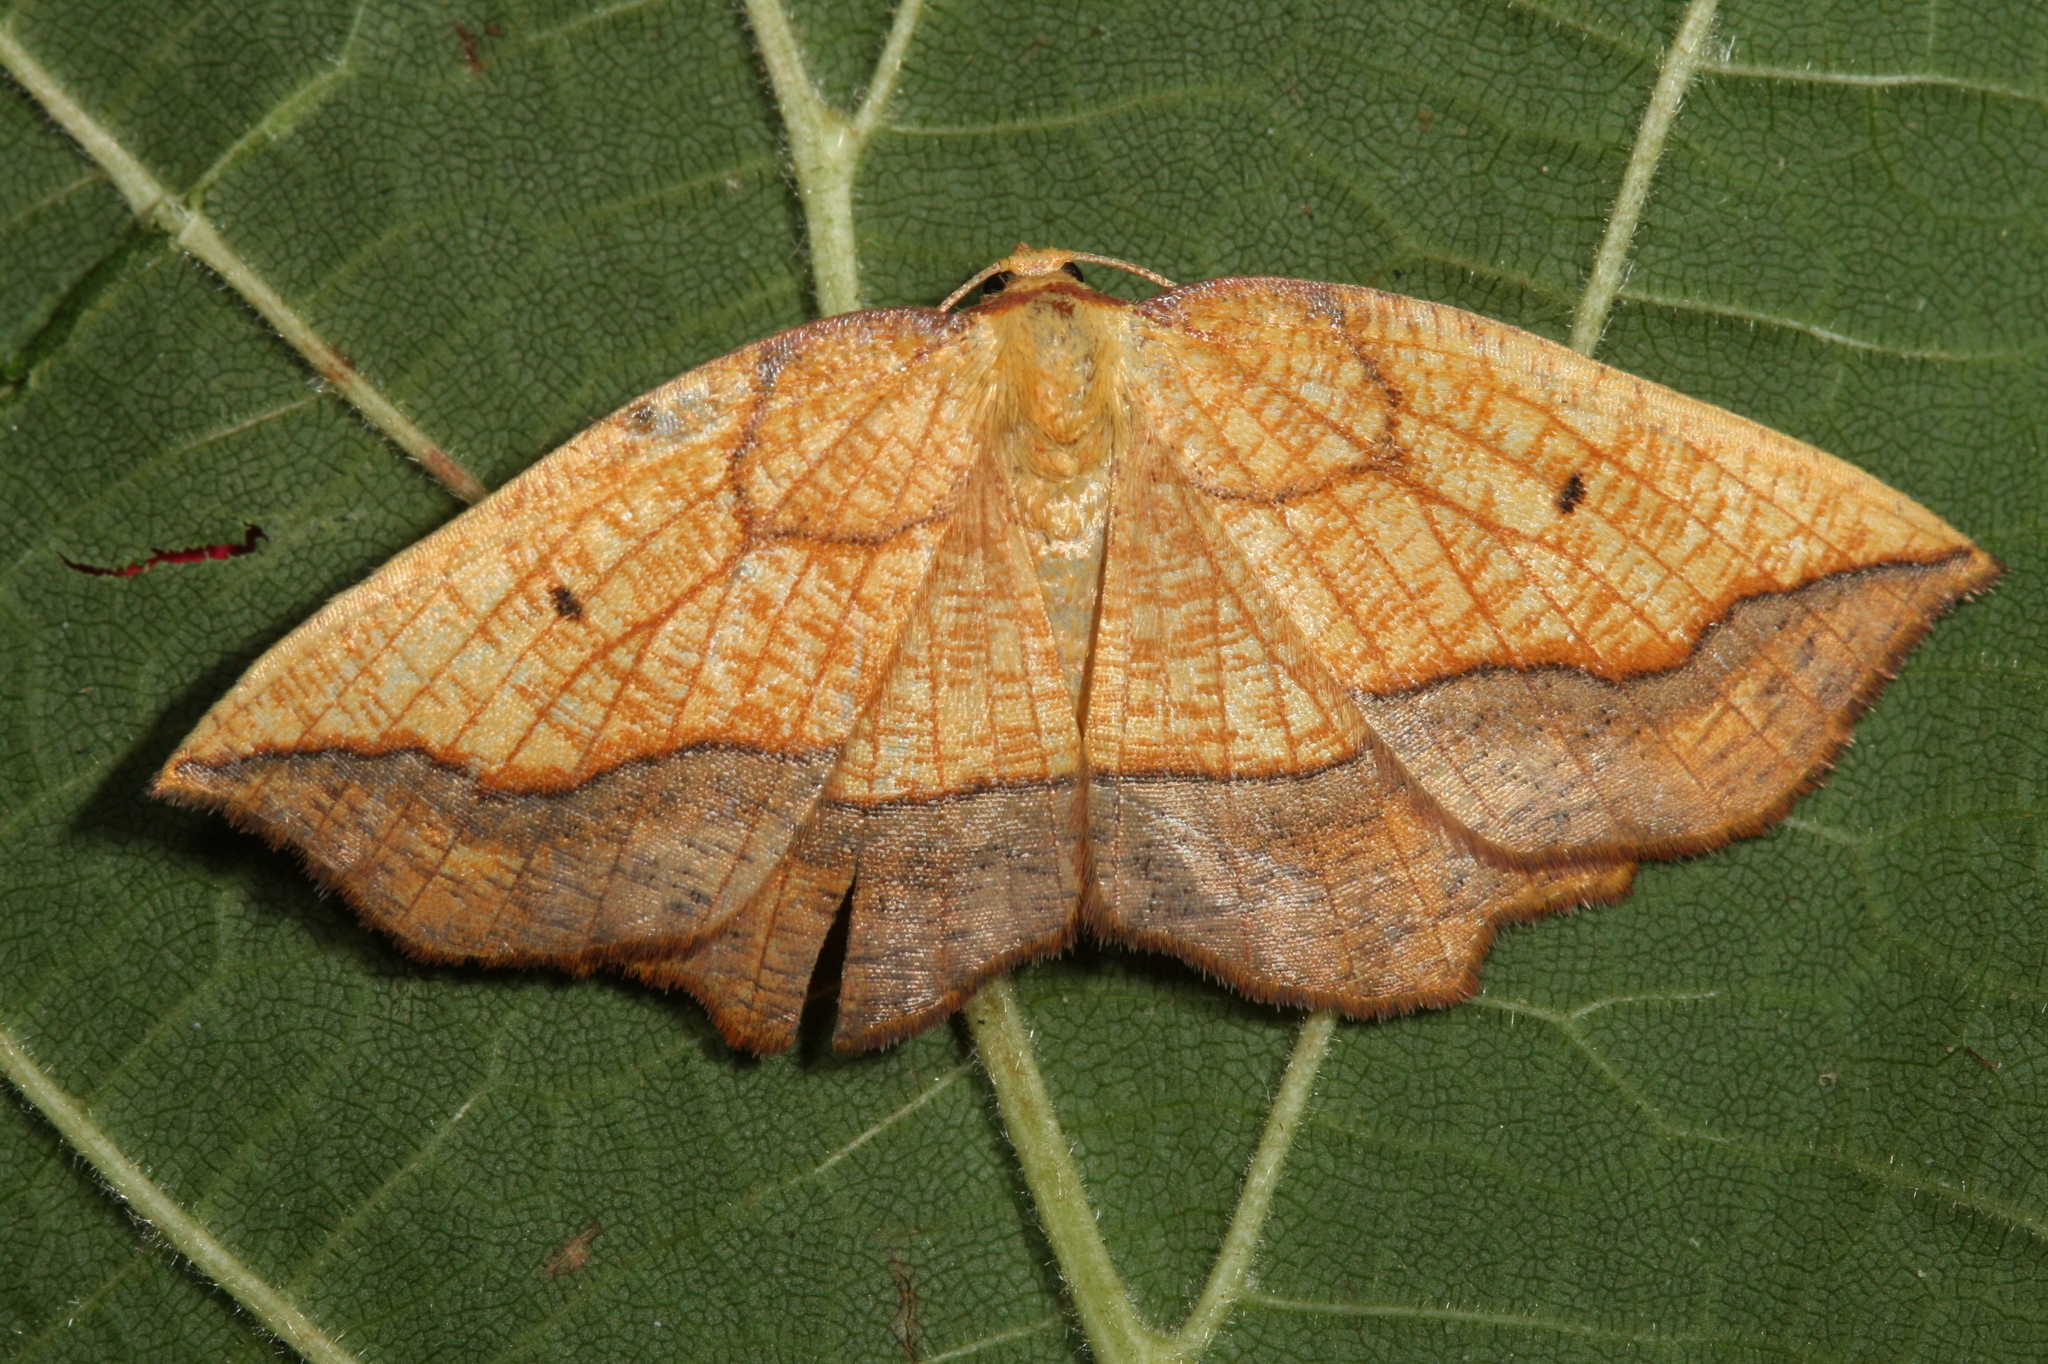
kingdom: Animalia
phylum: Arthropoda
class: Insecta
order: Lepidoptera
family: Geometridae
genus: Epione
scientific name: Epione repandaria
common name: Bordered beauty
